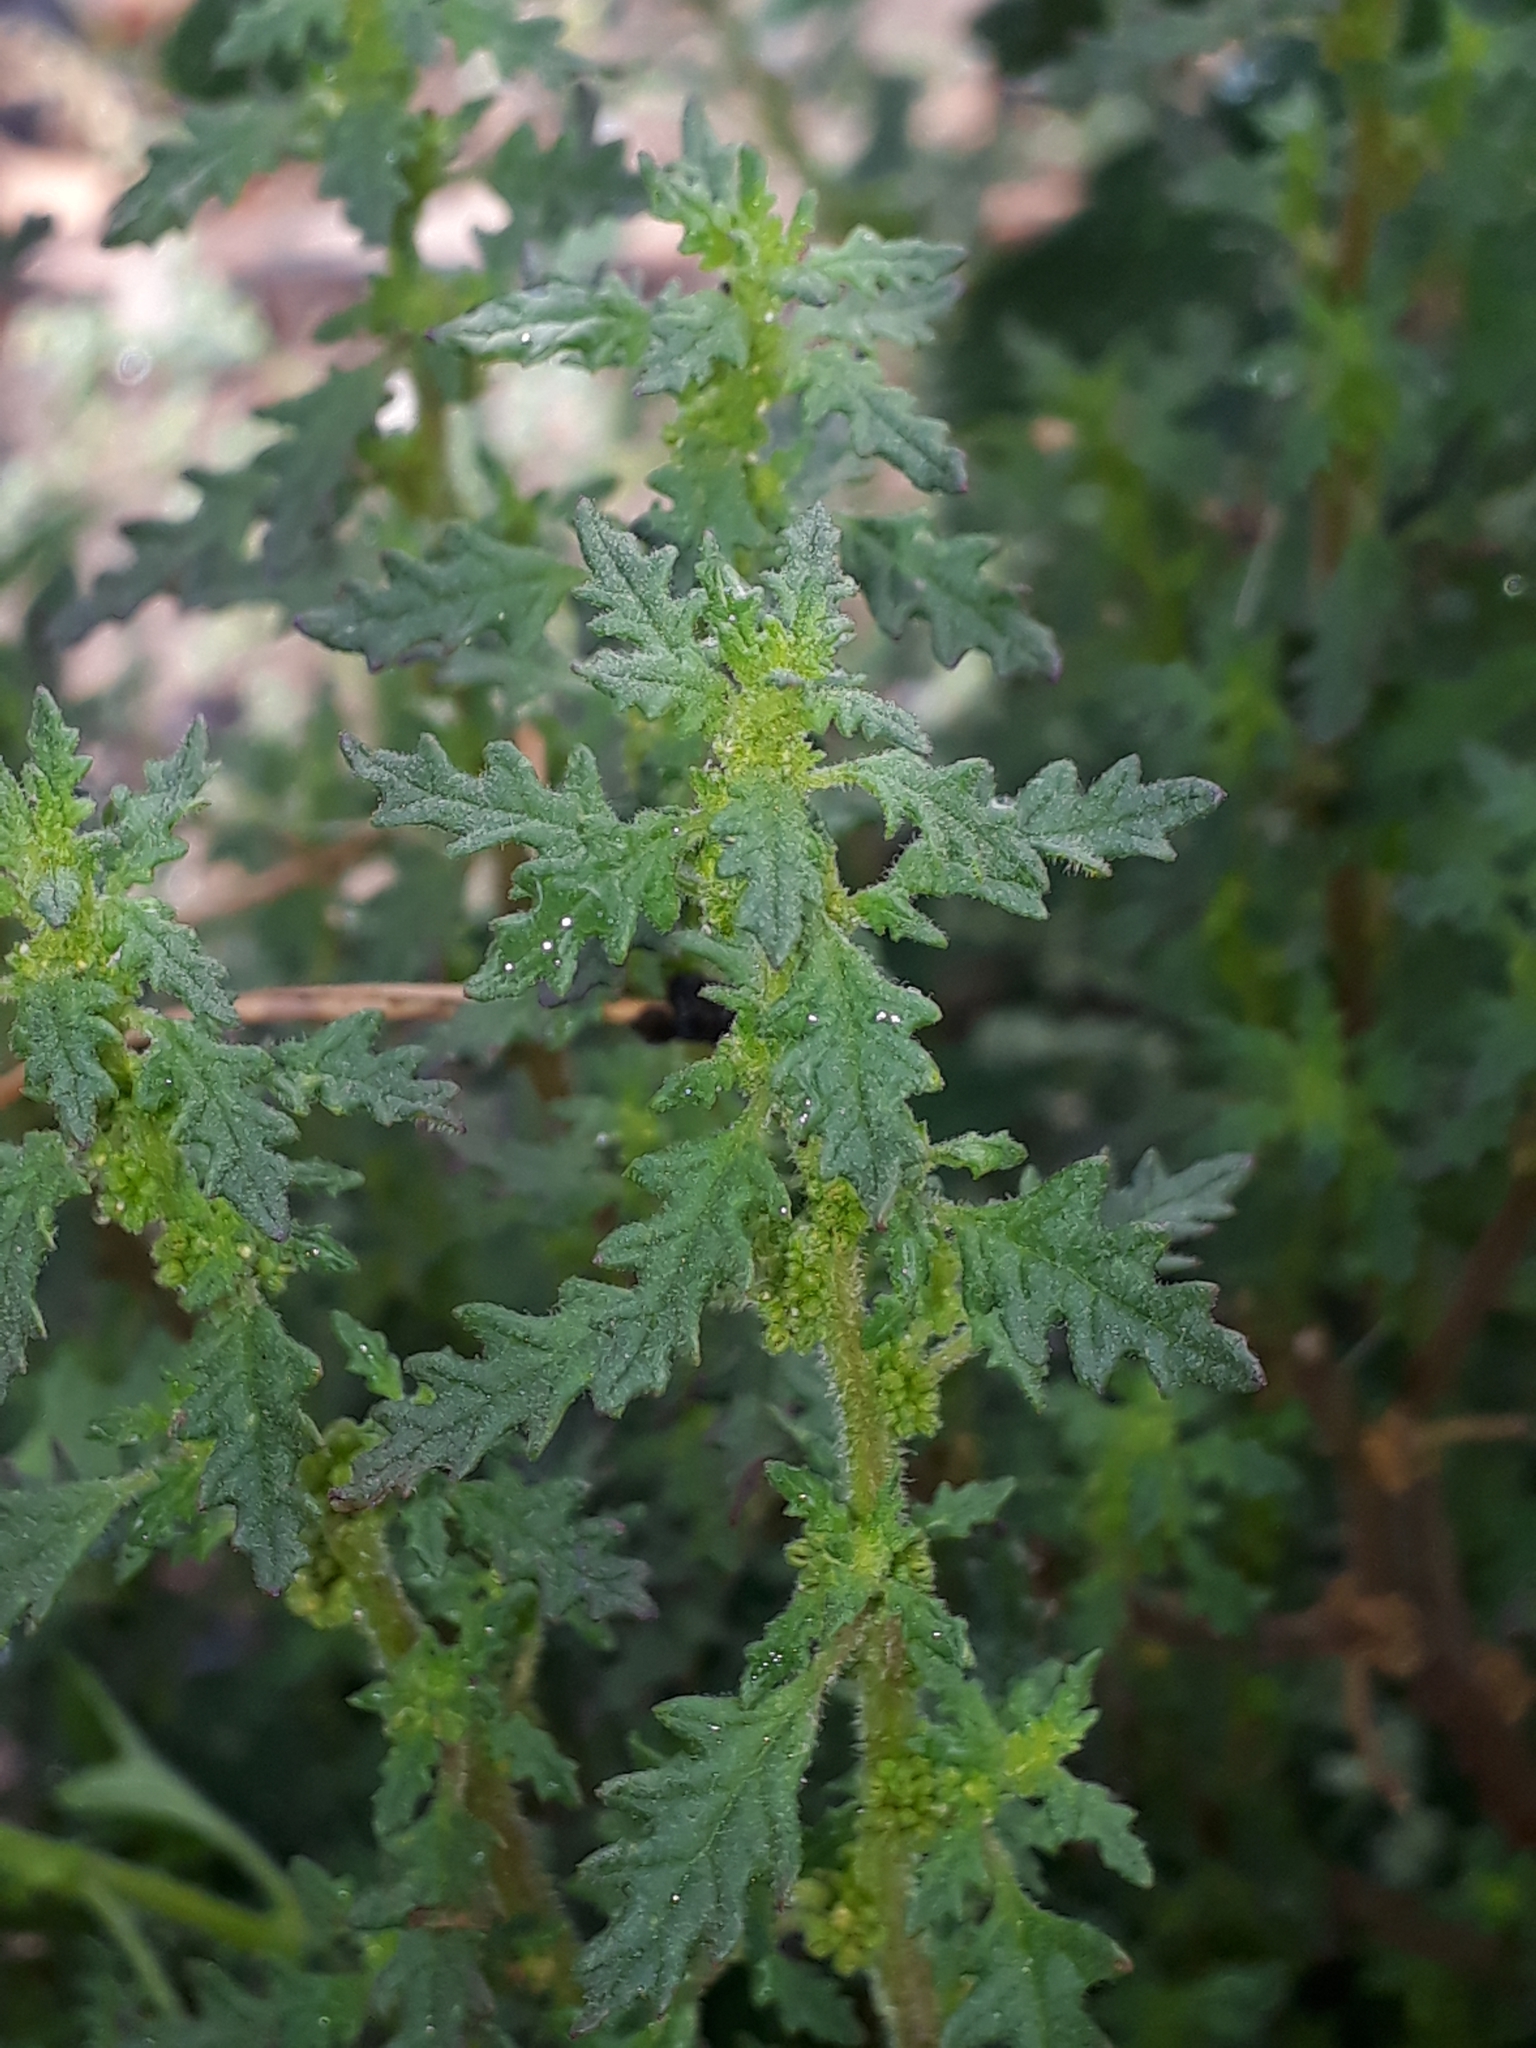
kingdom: Plantae
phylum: Tracheophyta
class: Magnoliopsida
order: Caryophyllales
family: Amaranthaceae
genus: Dysphania
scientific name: Dysphania pumilio
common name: Clammy goosefoot
